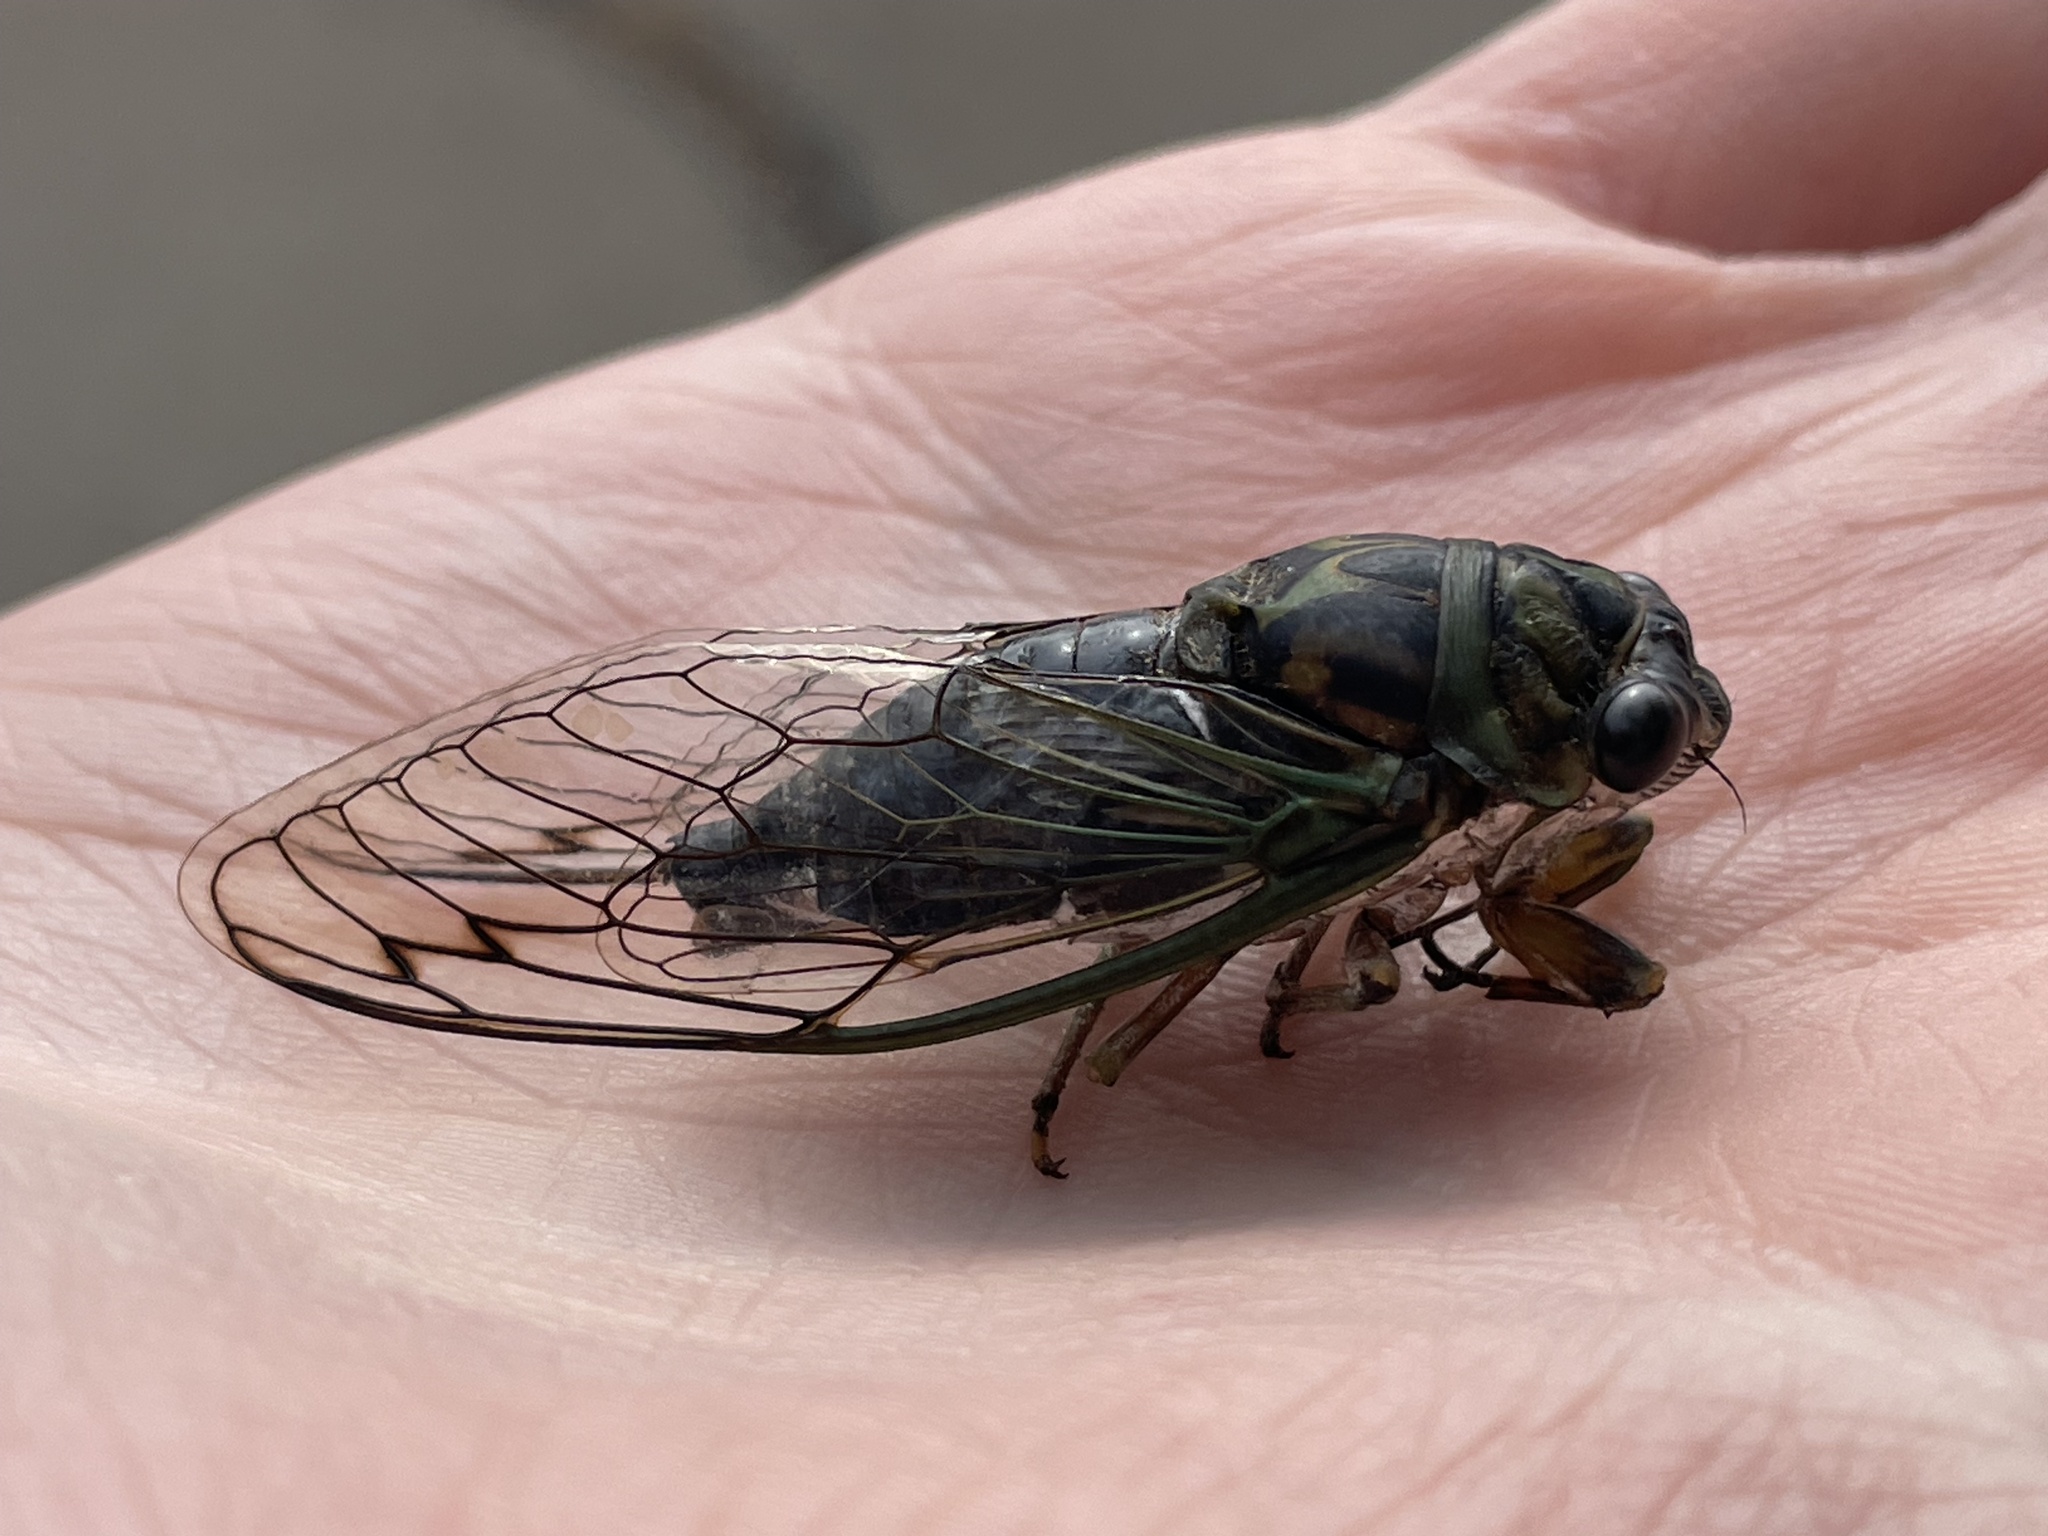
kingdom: Animalia
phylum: Arthropoda
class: Insecta
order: Hemiptera
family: Cicadidae
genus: Neotibicen
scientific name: Neotibicen linnei
